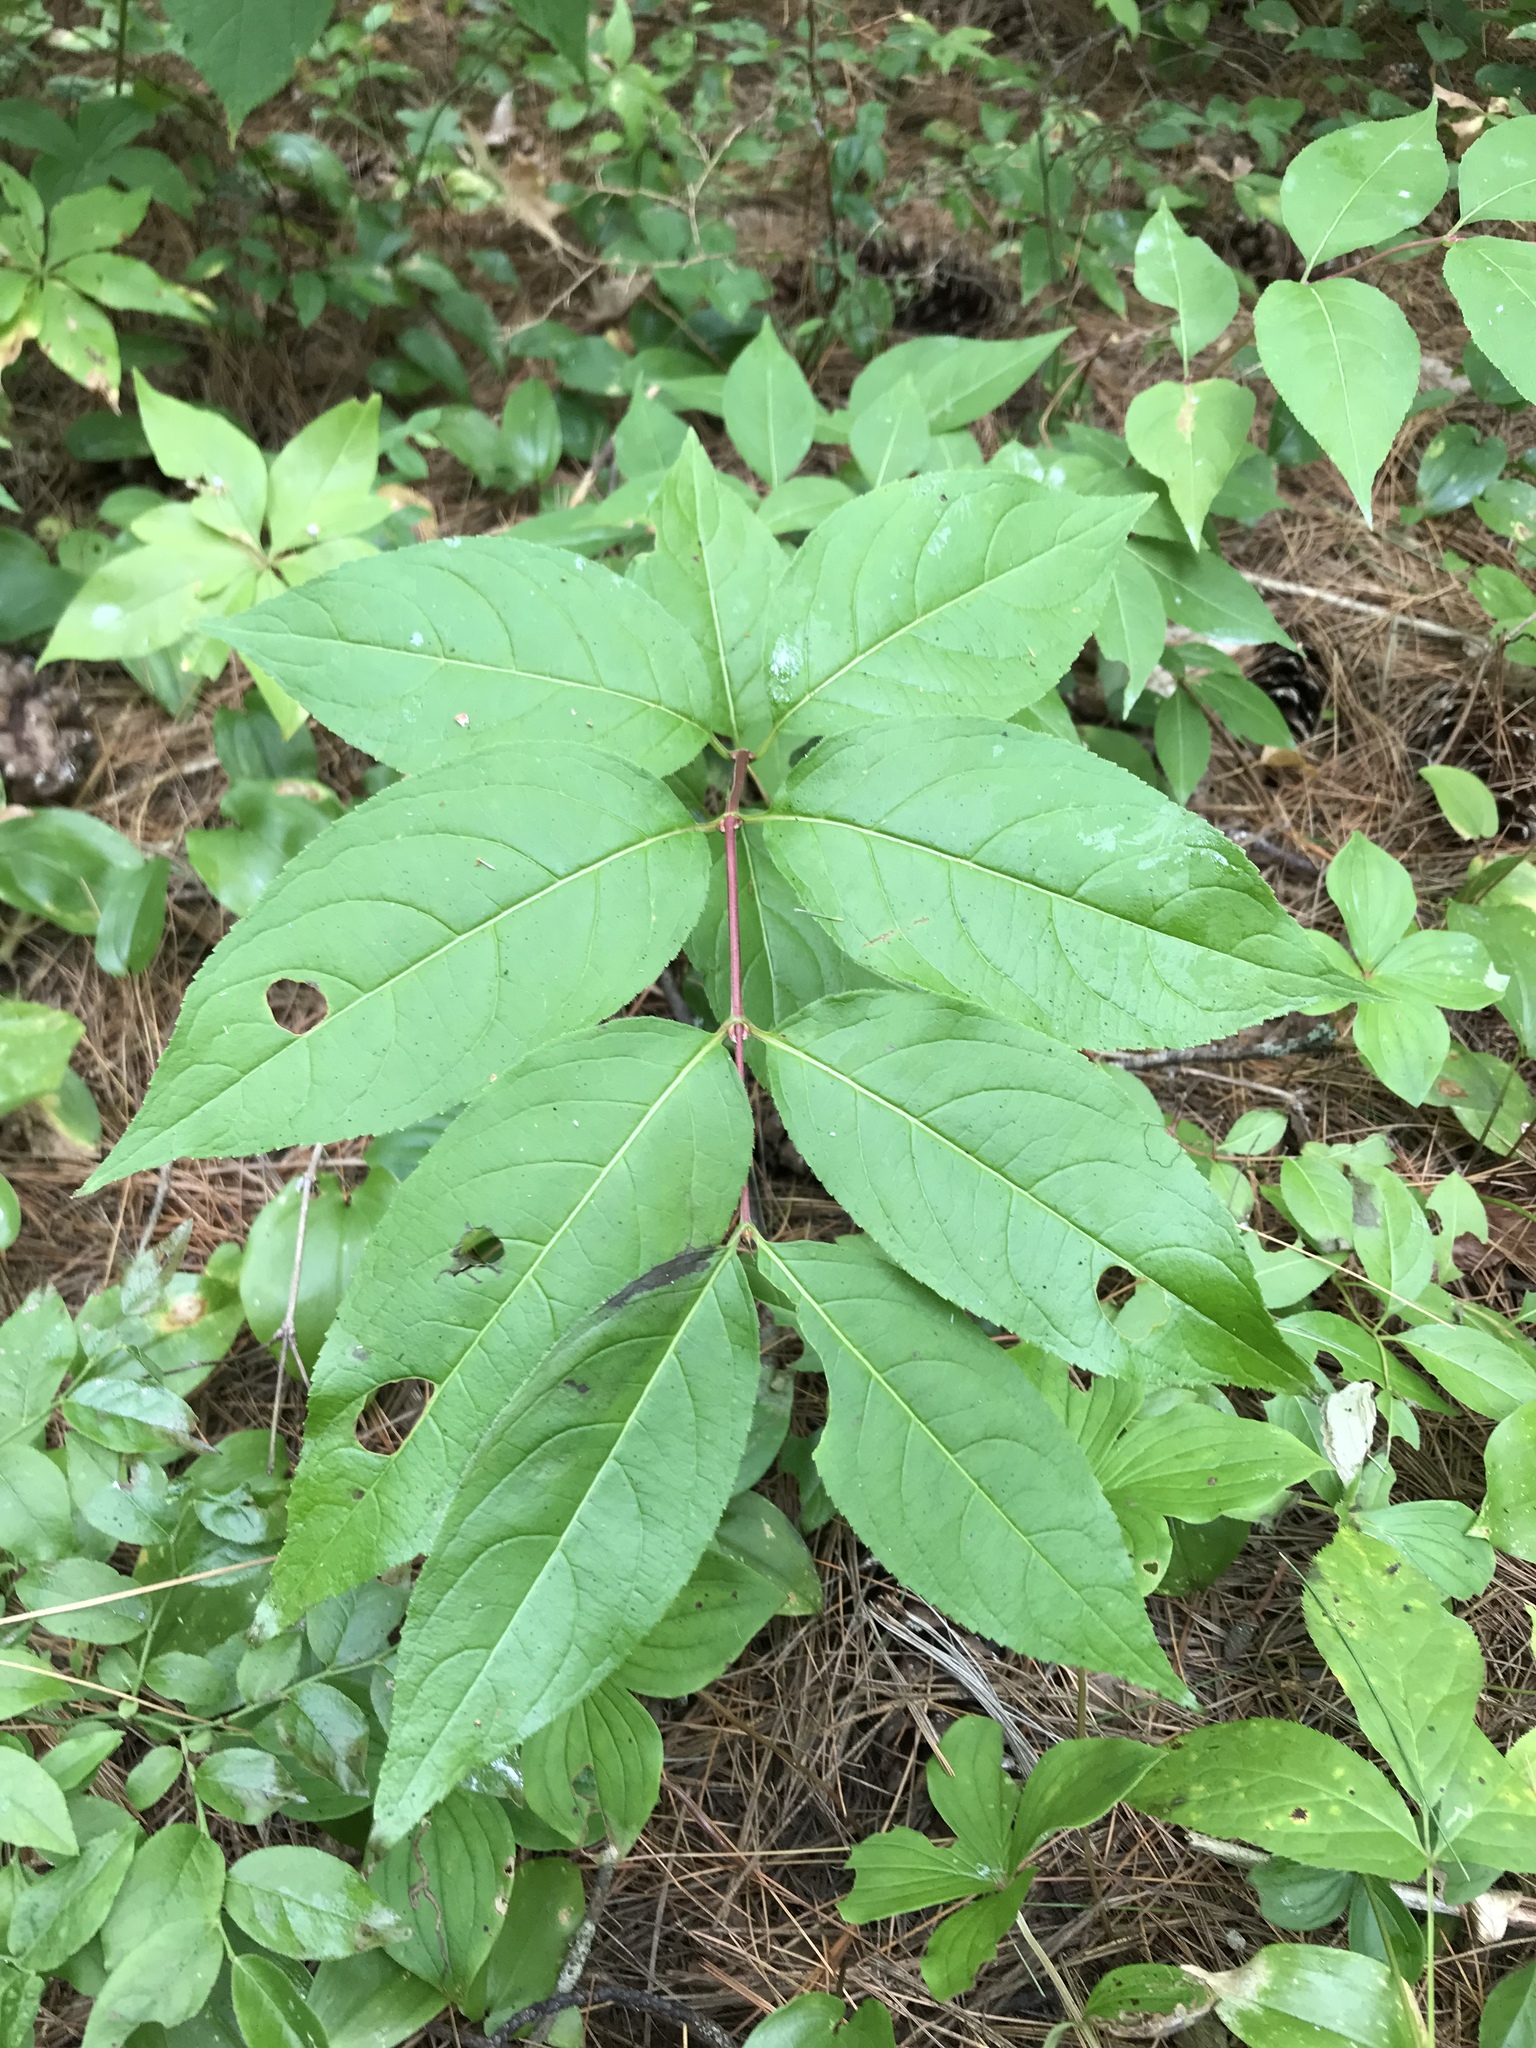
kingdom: Plantae
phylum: Tracheophyta
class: Magnoliopsida
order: Dipsacales
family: Caprifoliaceae
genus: Diervilla
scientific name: Diervilla lonicera
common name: Bush-honeysuckle
